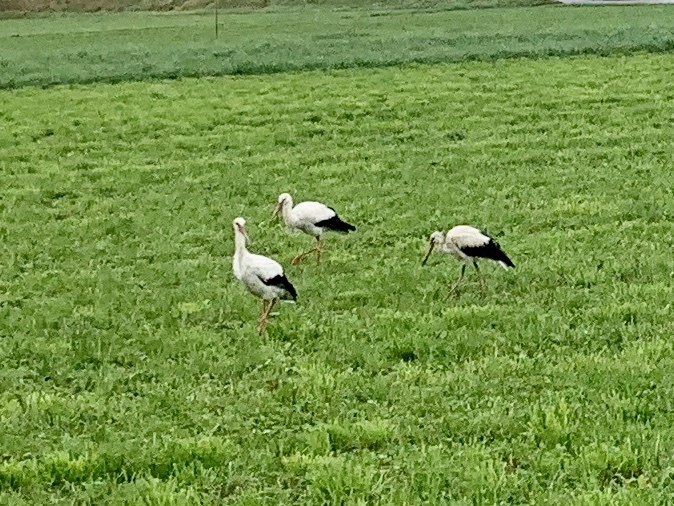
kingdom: Animalia
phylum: Chordata
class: Aves
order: Ciconiiformes
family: Ciconiidae
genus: Ciconia
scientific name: Ciconia ciconia
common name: White stork
